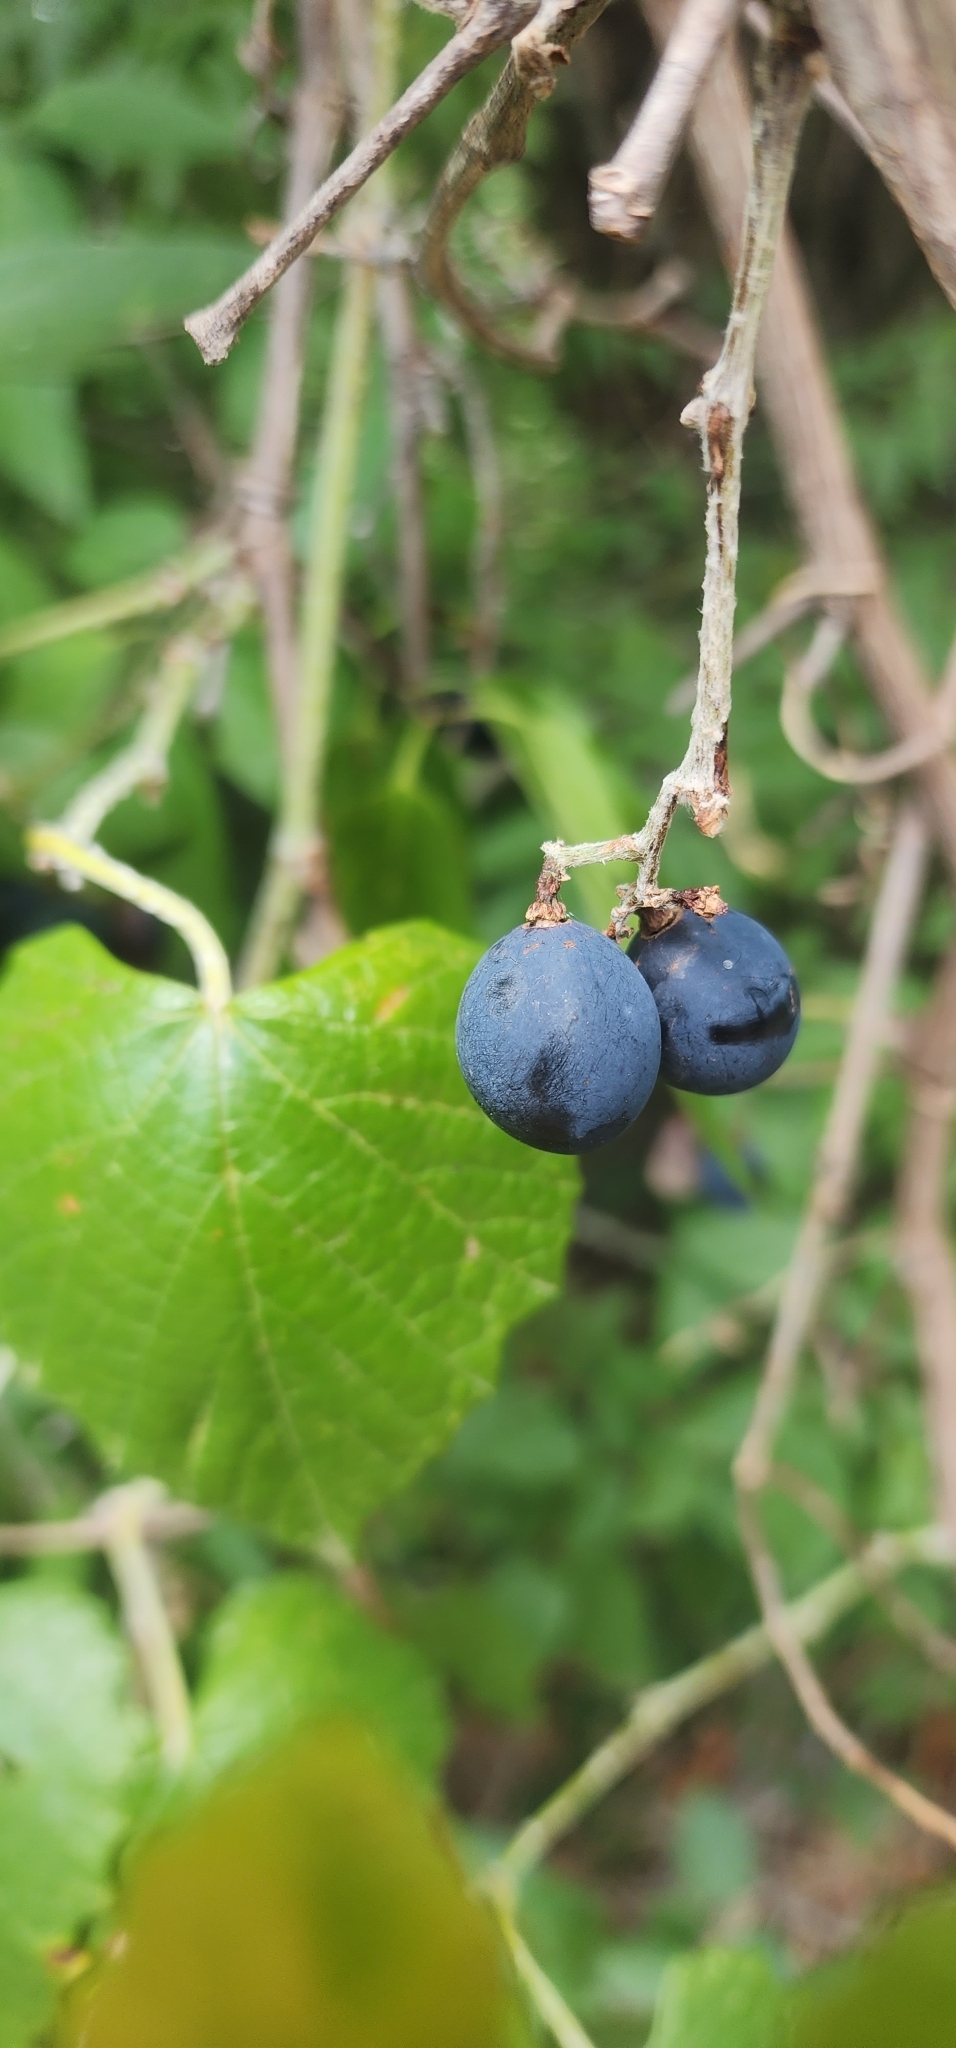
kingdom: Plantae
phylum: Tracheophyta
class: Magnoliopsida
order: Vitales
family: Vitaceae
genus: Vitis
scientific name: Vitis mustangensis
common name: Mustang grape
